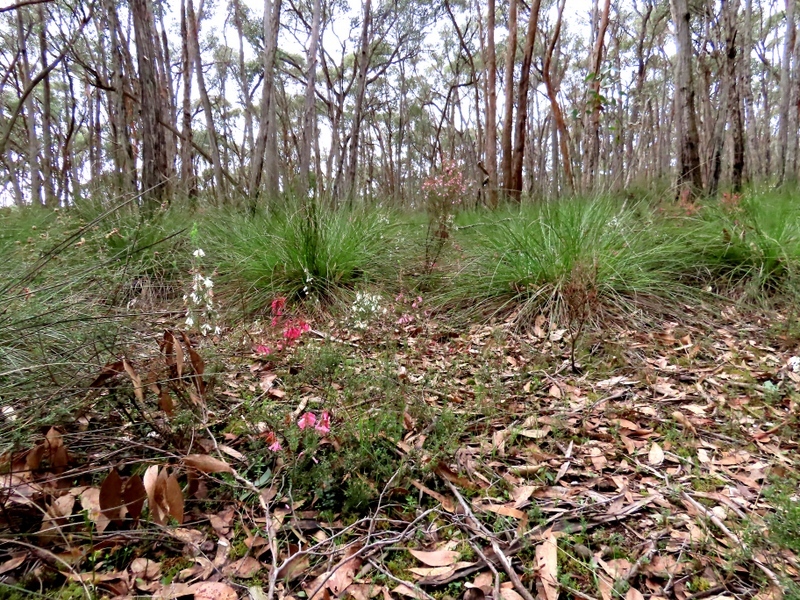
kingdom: Plantae
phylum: Tracheophyta
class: Magnoliopsida
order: Ericales
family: Ericaceae
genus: Epacris
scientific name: Epacris impressa
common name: Common-heath
